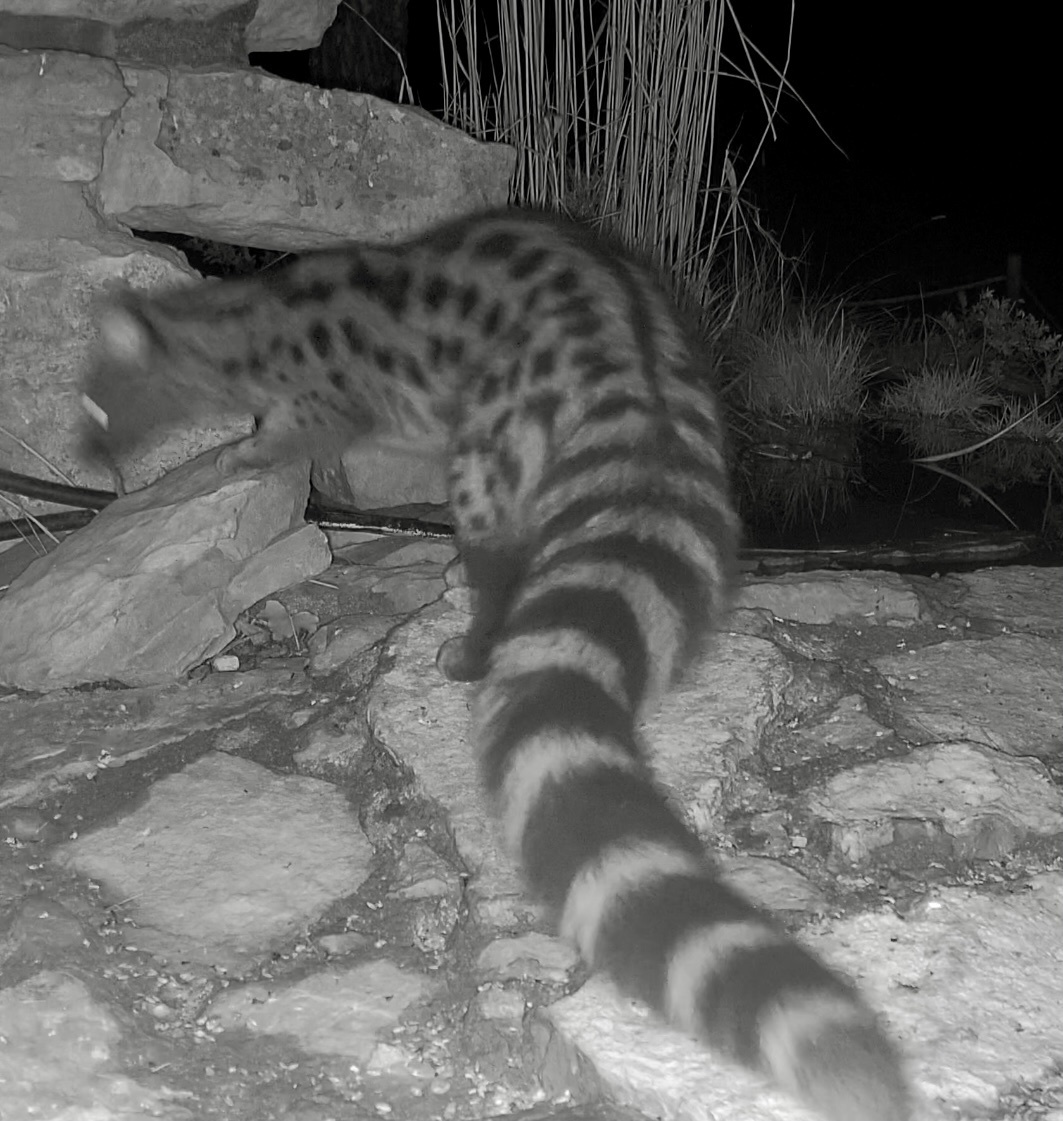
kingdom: Animalia
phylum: Chordata
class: Mammalia
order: Carnivora
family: Viverridae
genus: Genetta
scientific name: Genetta genetta
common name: Common genet
